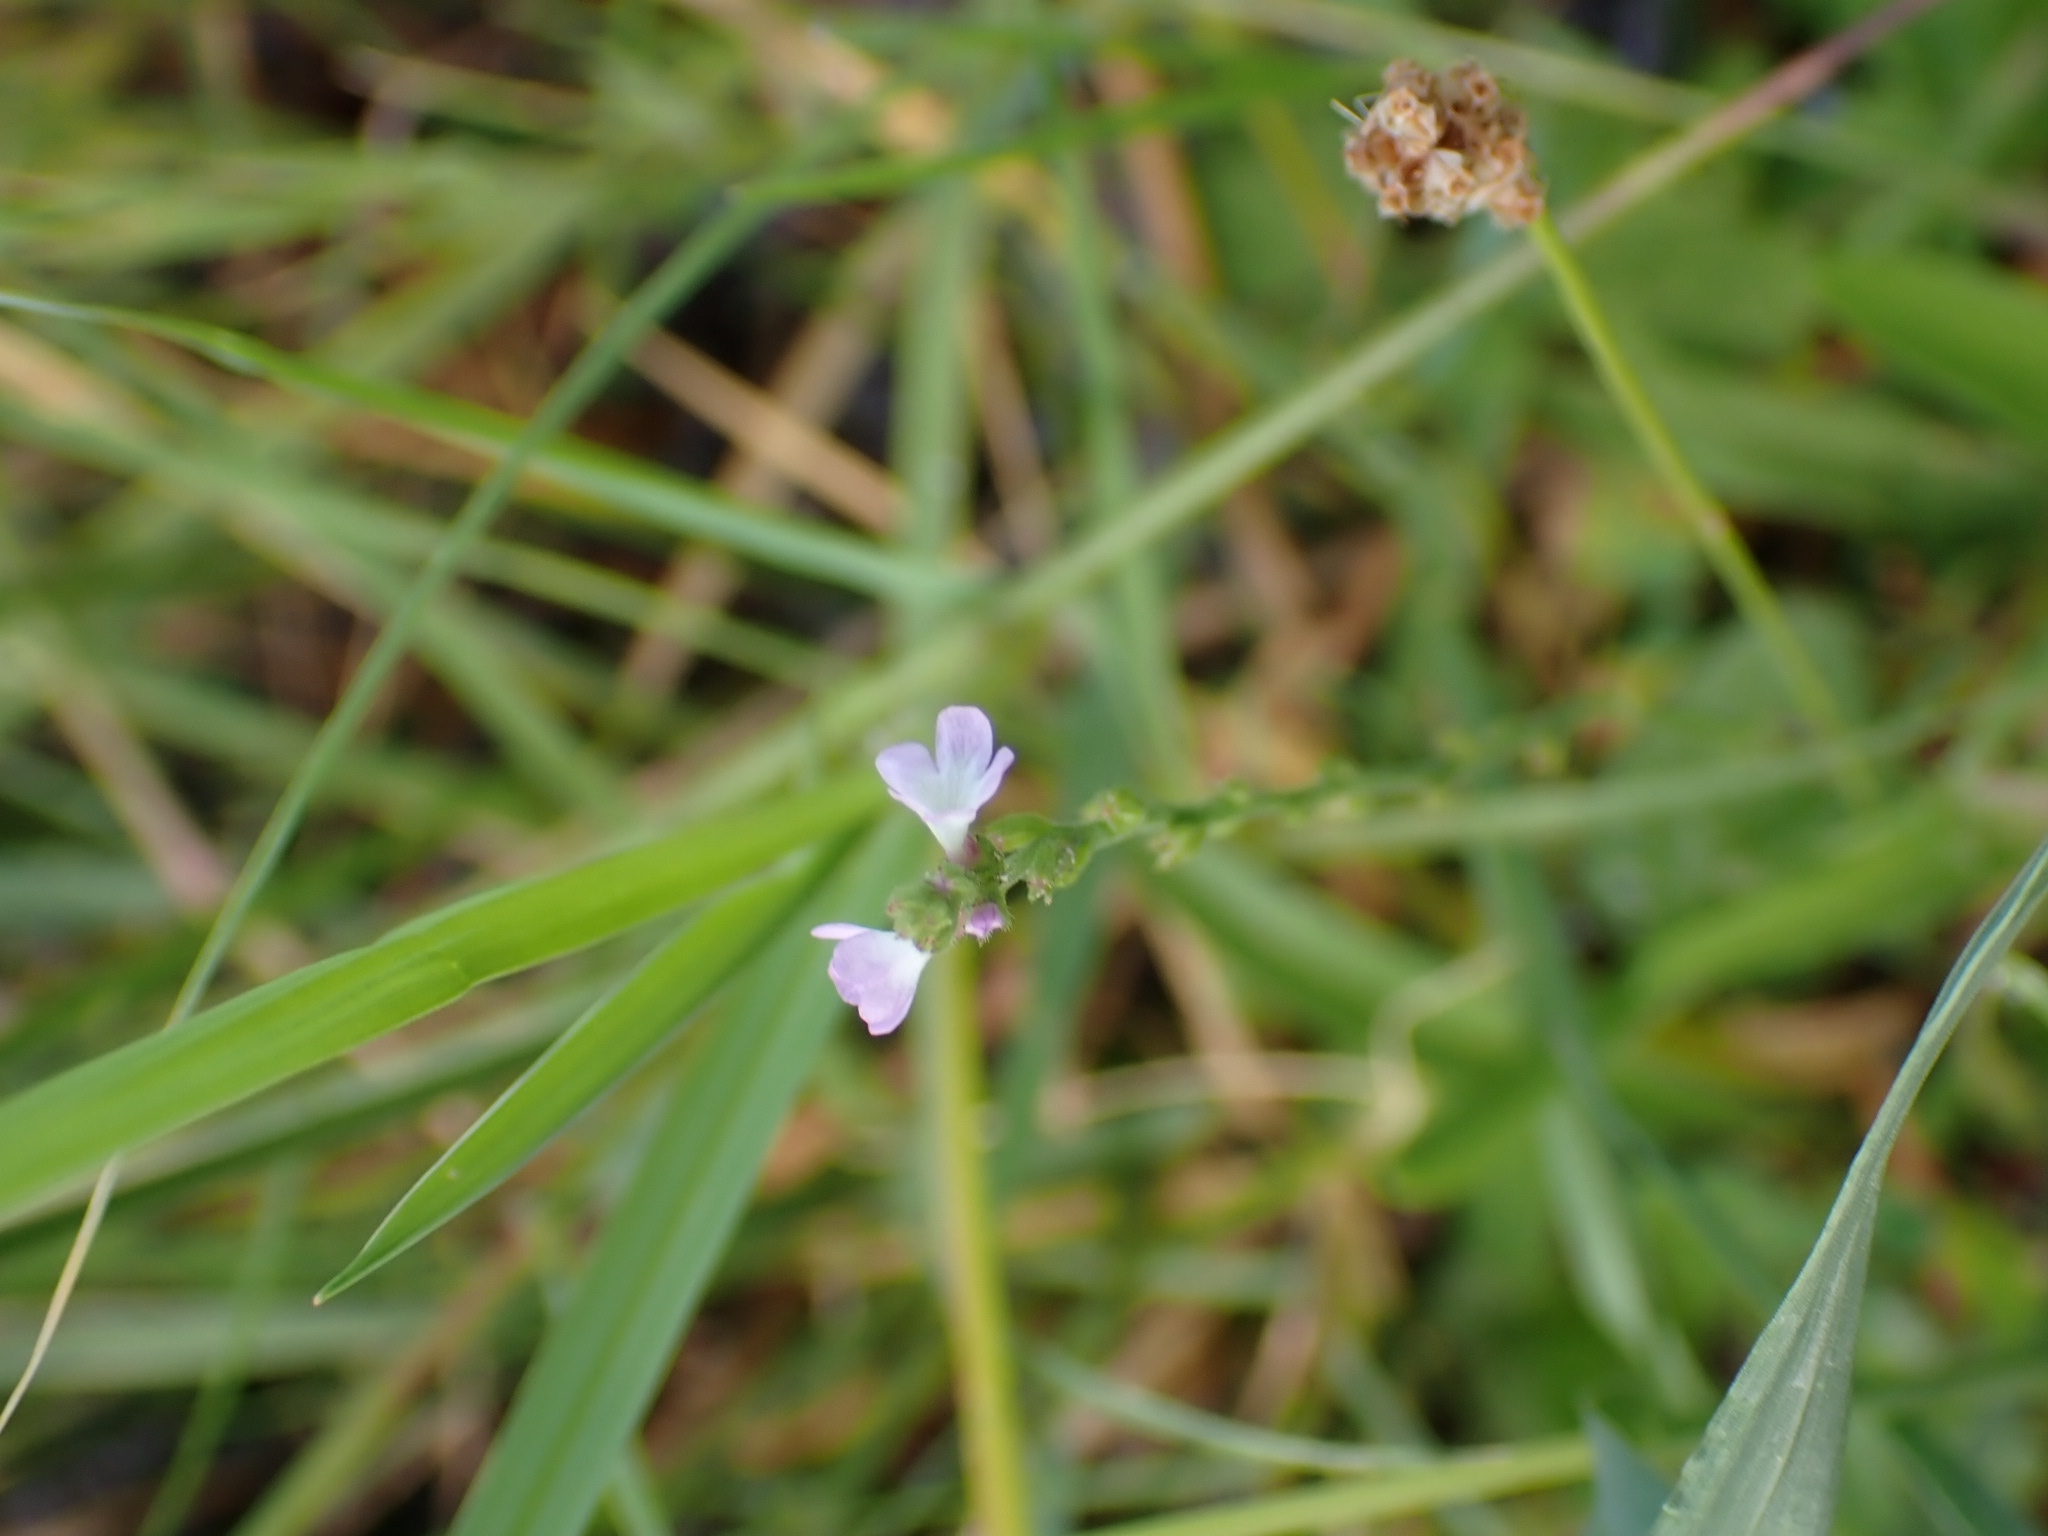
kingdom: Plantae
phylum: Tracheophyta
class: Magnoliopsida
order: Lamiales
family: Verbenaceae
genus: Verbena
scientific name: Verbena officinalis
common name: Vervain
